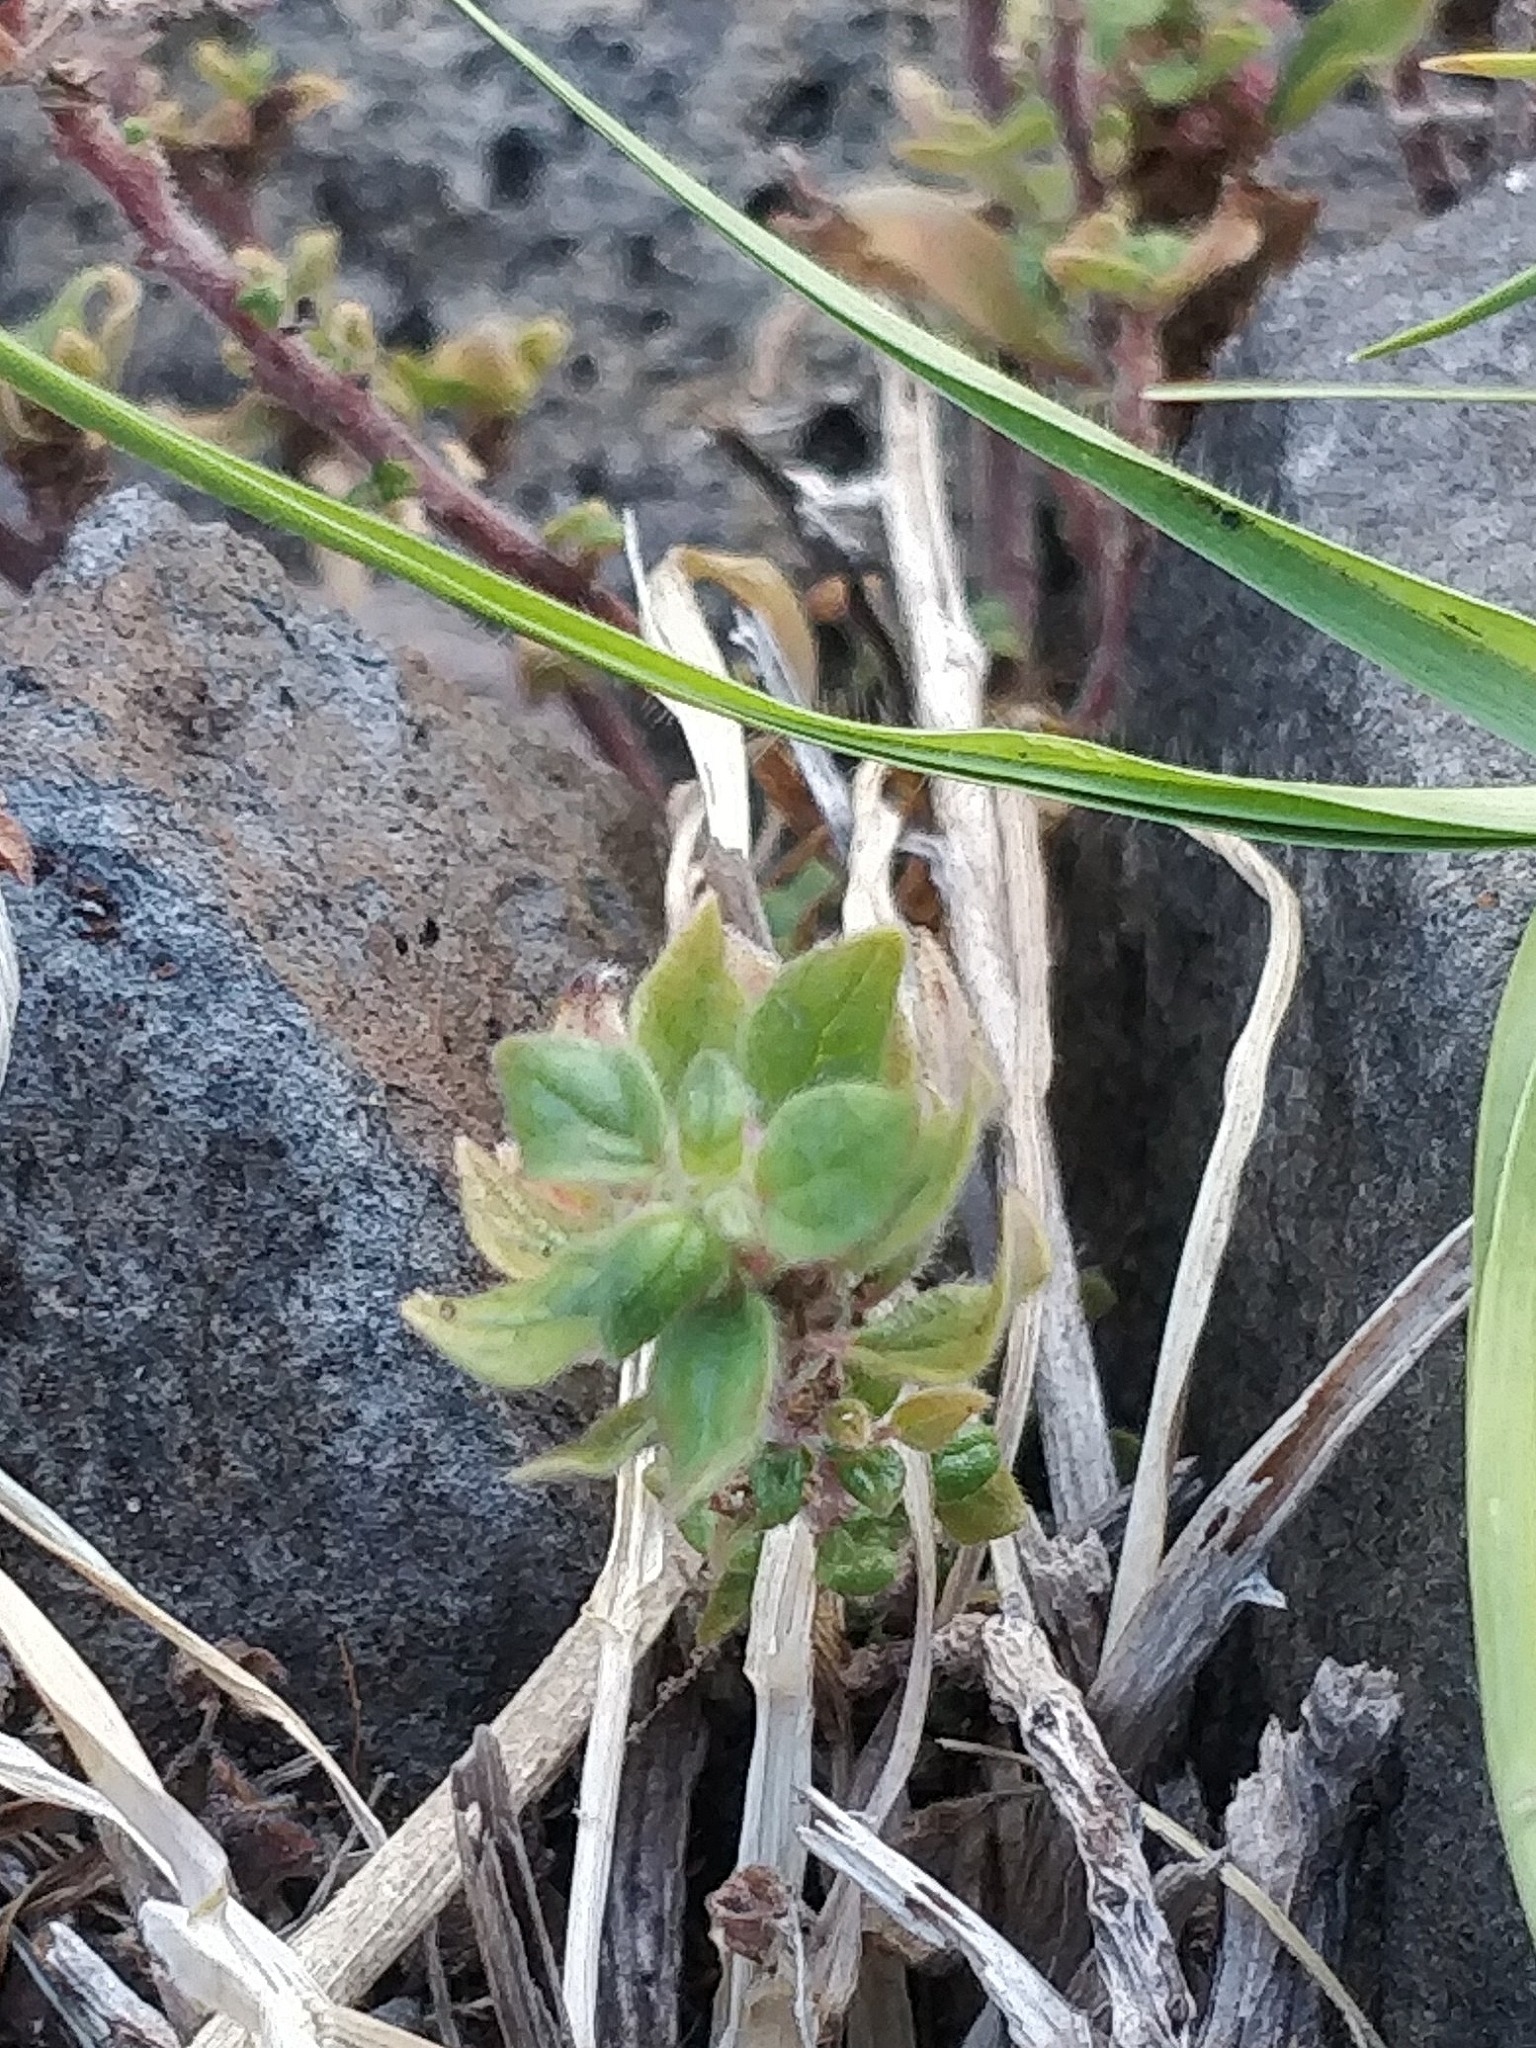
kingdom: Plantae
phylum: Tracheophyta
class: Magnoliopsida
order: Lamiales
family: Lamiaceae
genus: Clinopodium
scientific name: Clinopodium vulgare
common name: Wild basil
